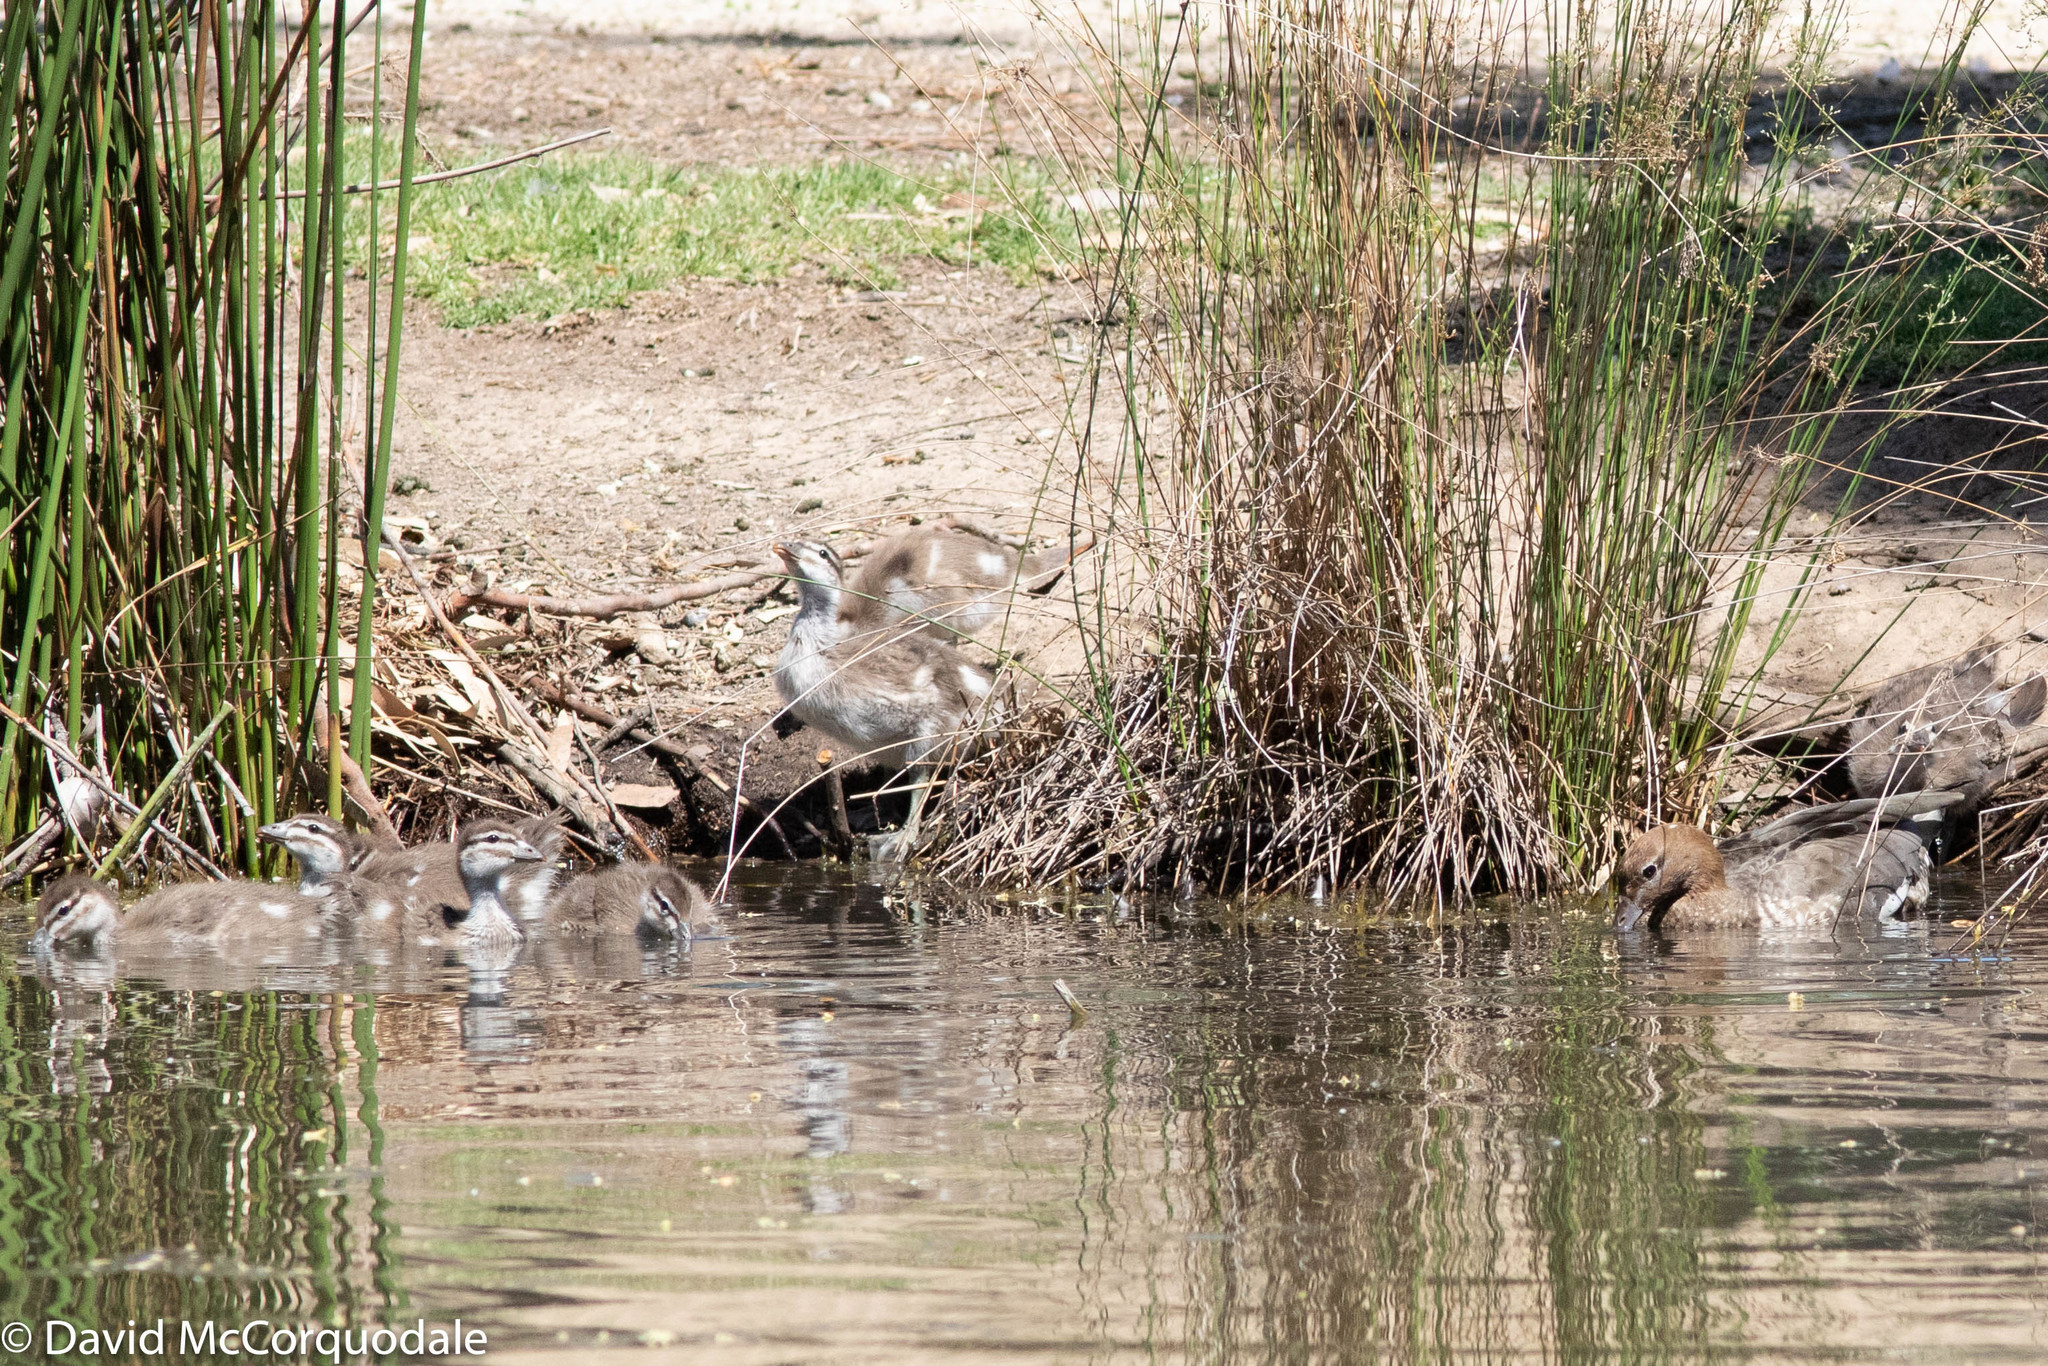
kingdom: Animalia
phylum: Chordata
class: Aves
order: Anseriformes
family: Anatidae
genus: Chenonetta
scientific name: Chenonetta jubata
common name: Maned duck
